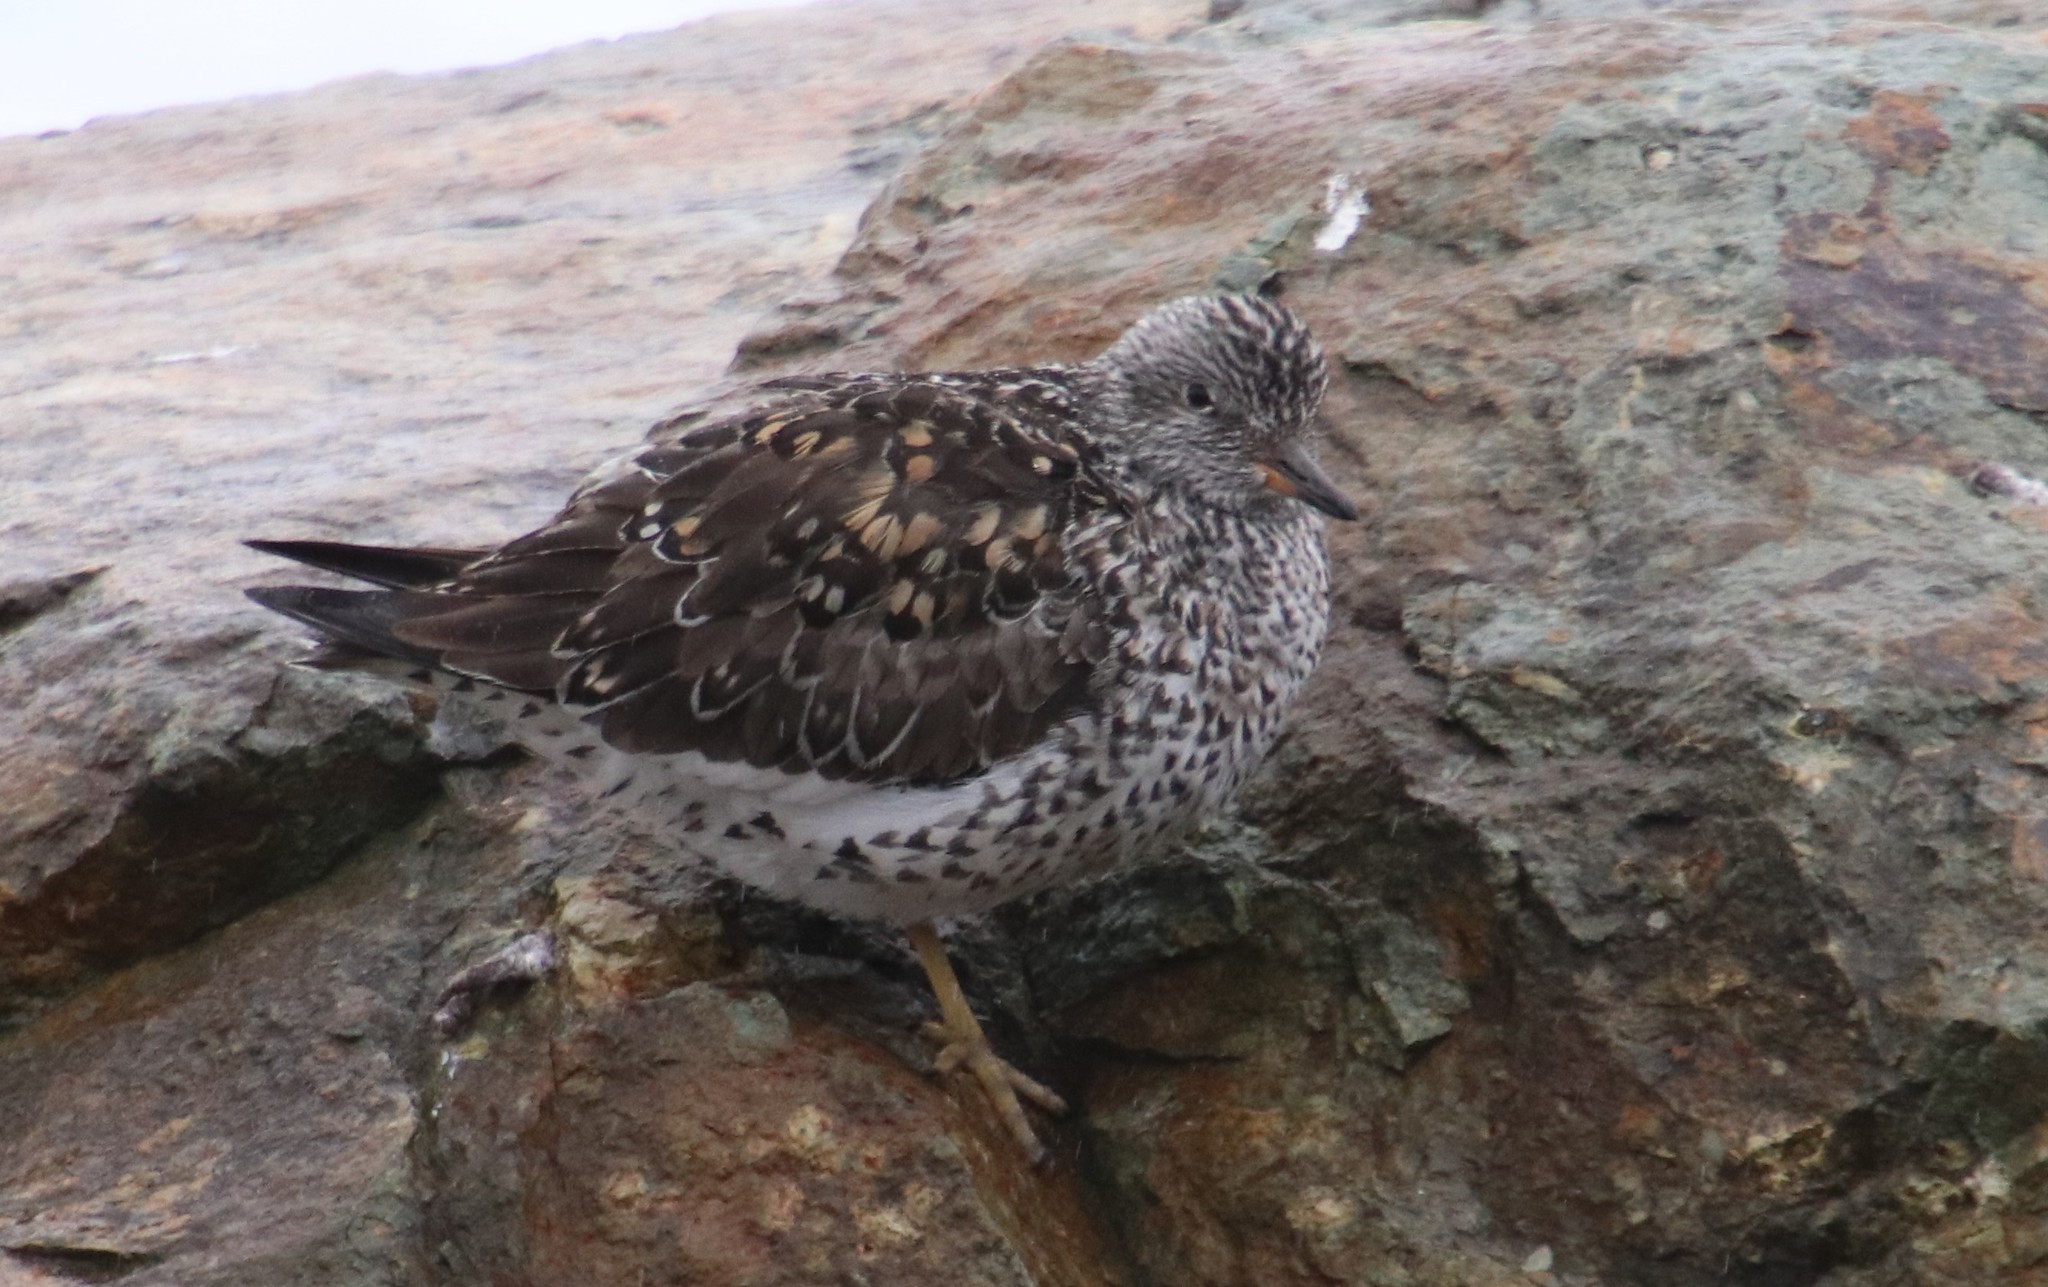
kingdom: Animalia
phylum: Chordata
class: Aves
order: Charadriiformes
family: Scolopacidae
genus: Calidris
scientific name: Calidris virgata
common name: Surfbird
